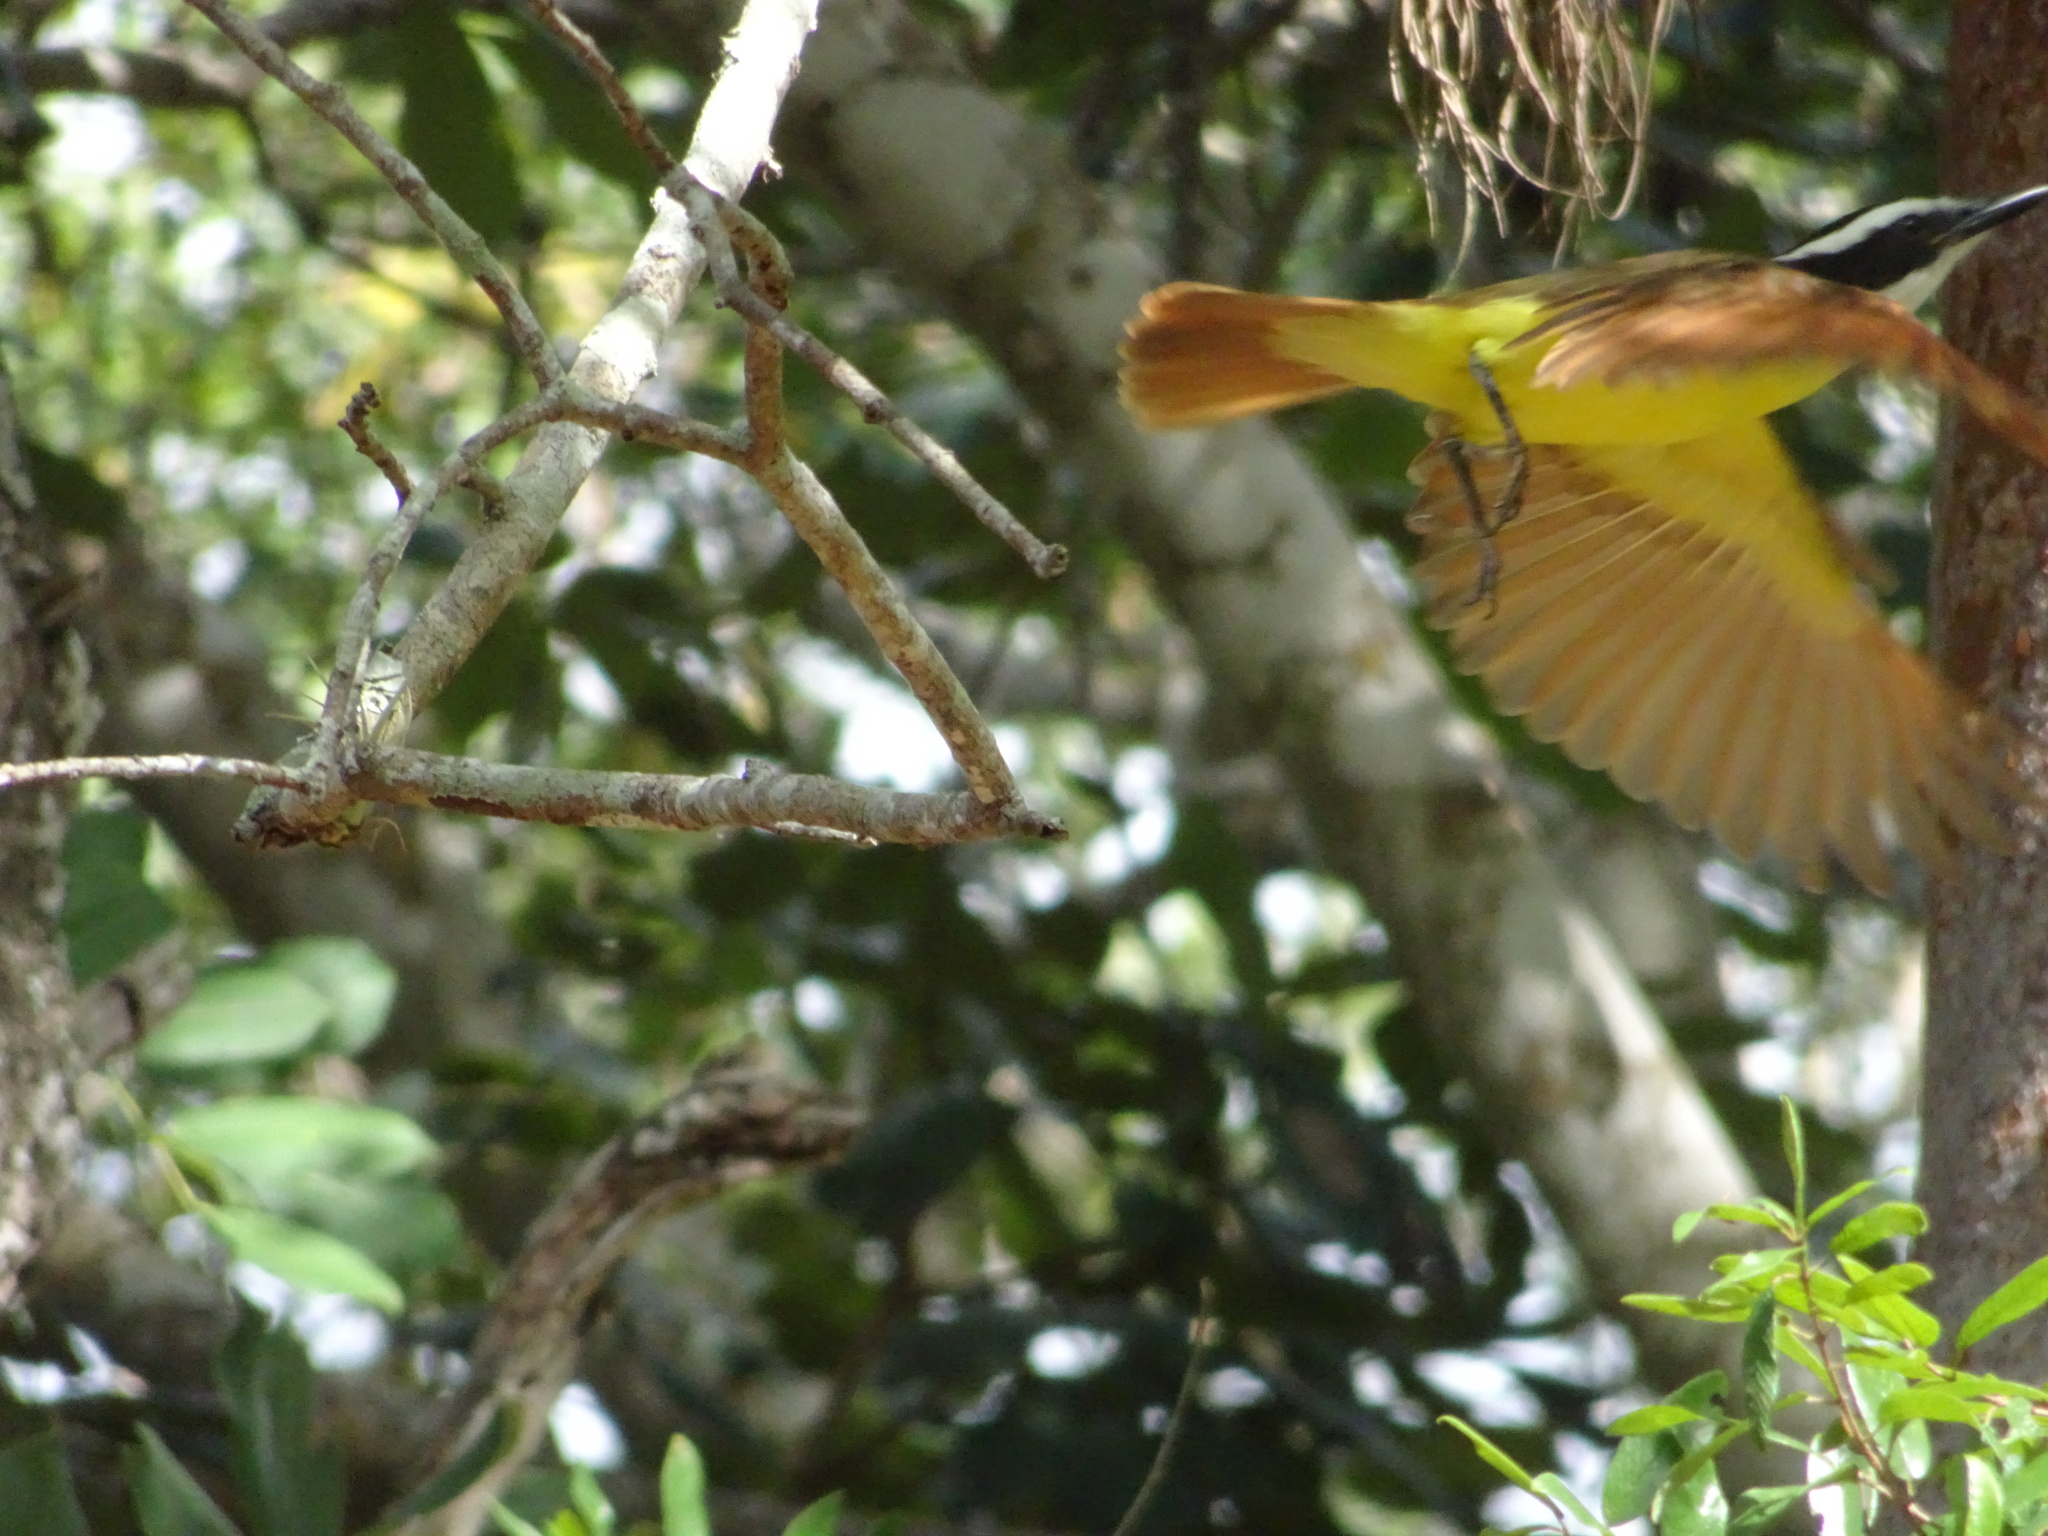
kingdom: Animalia
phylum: Chordata
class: Aves
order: Passeriformes
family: Tyrannidae
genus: Pitangus
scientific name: Pitangus sulphuratus
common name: Great kiskadee
